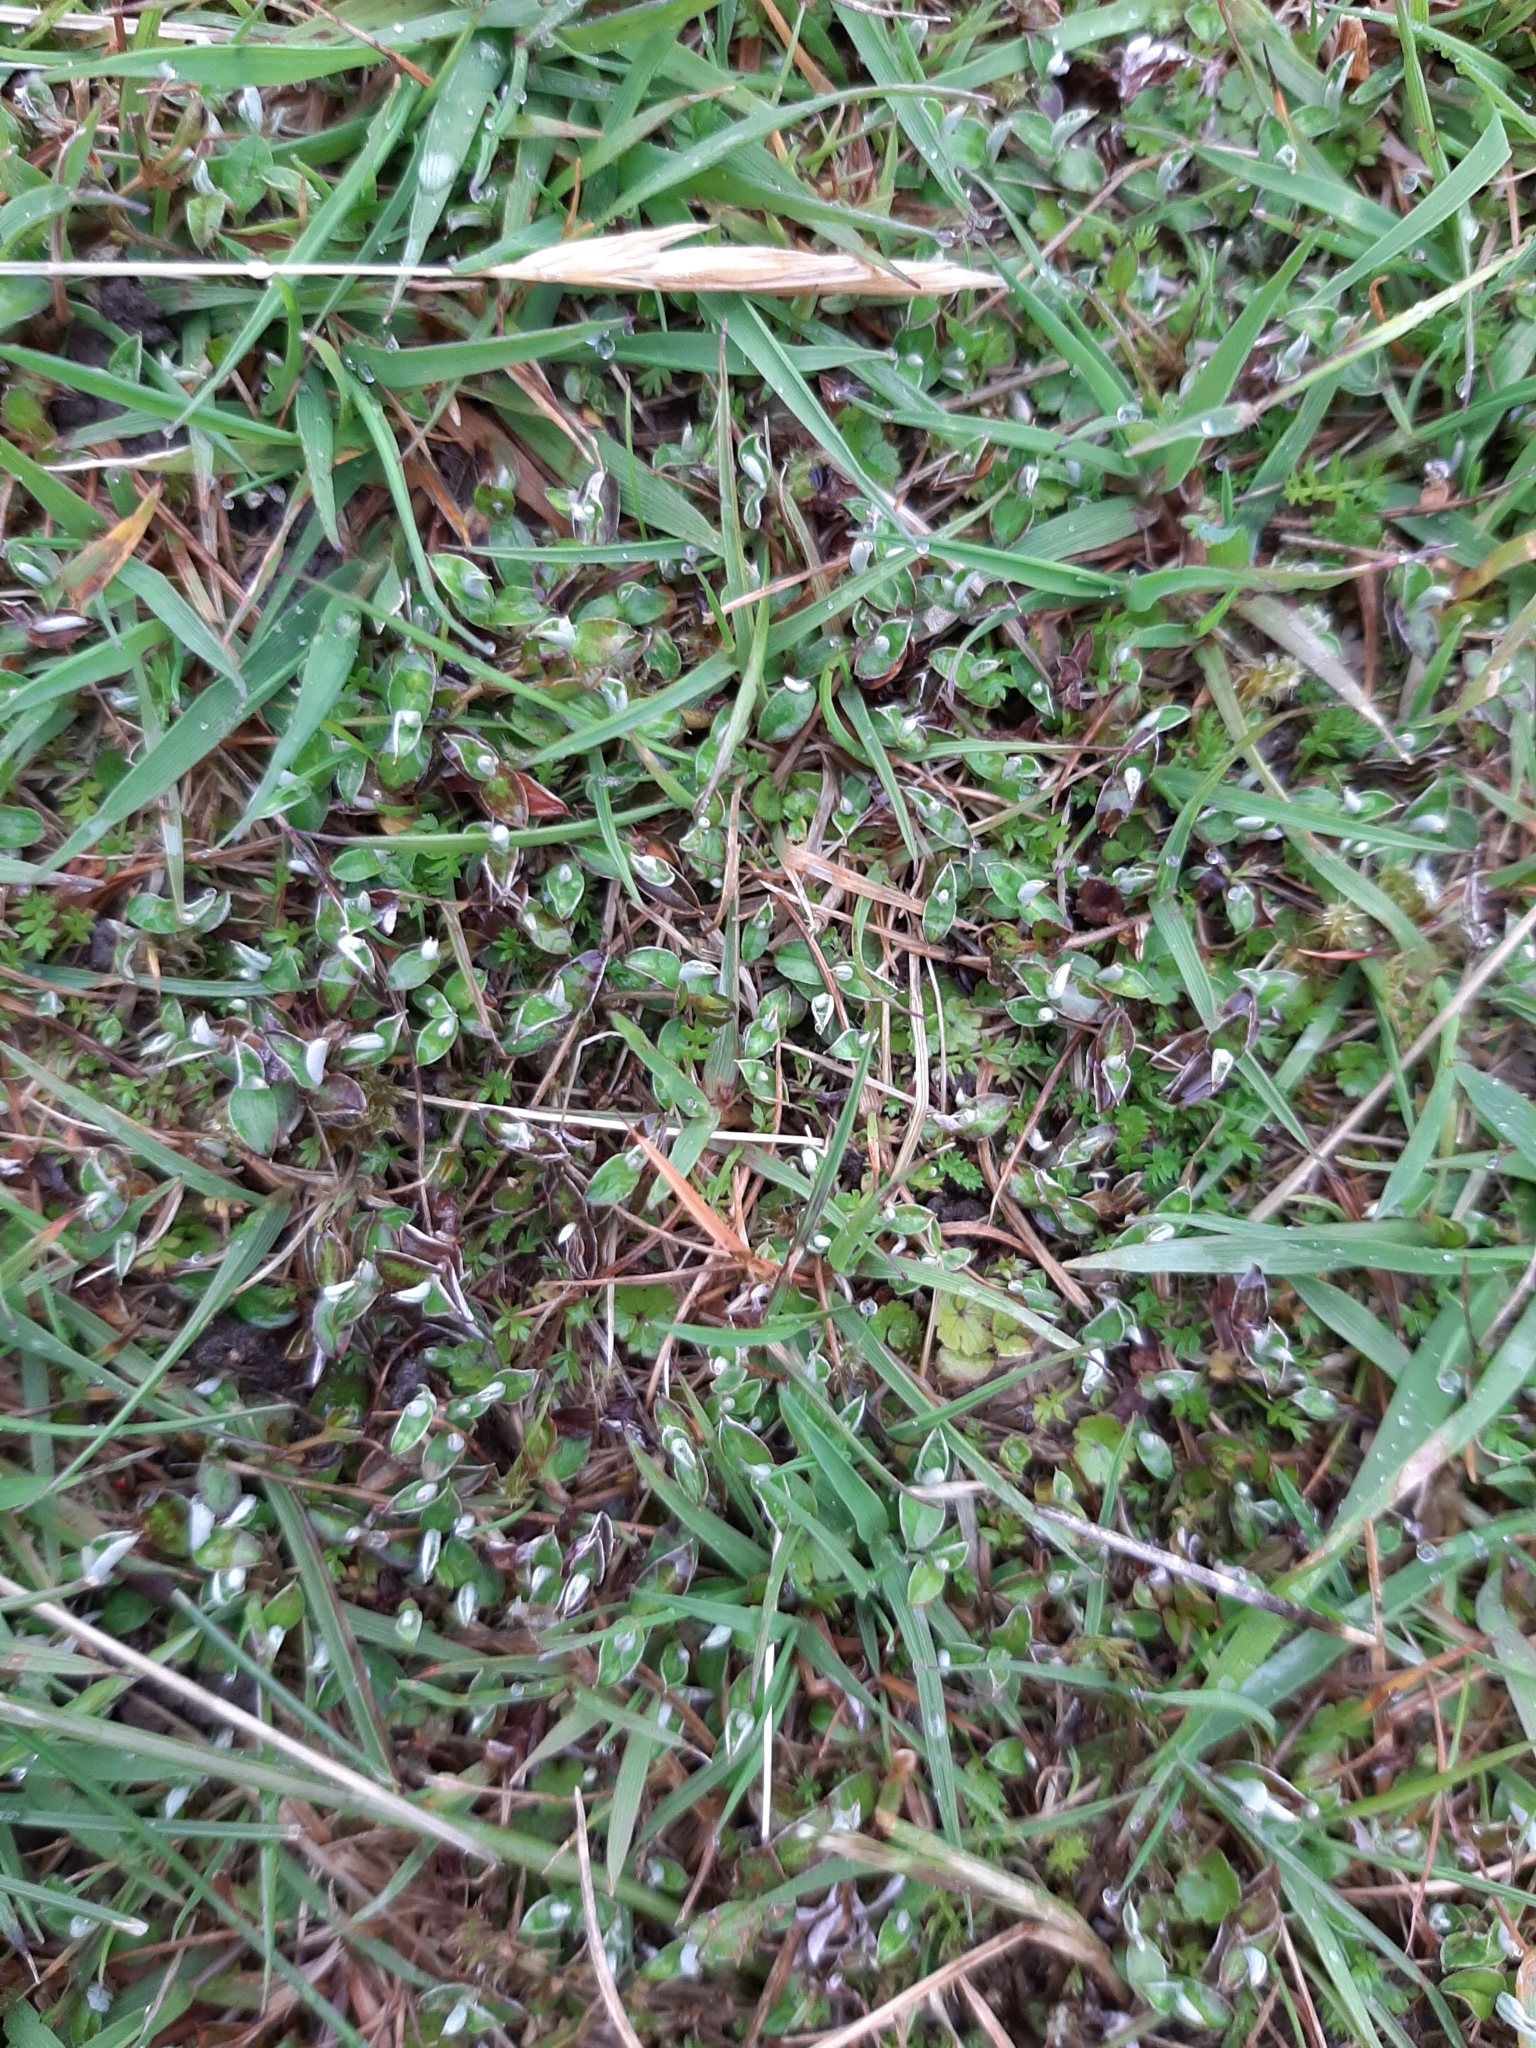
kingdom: Plantae
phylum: Tracheophyta
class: Magnoliopsida
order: Asterales
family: Asteraceae
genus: Helichrysum
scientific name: Helichrysum filicaule
